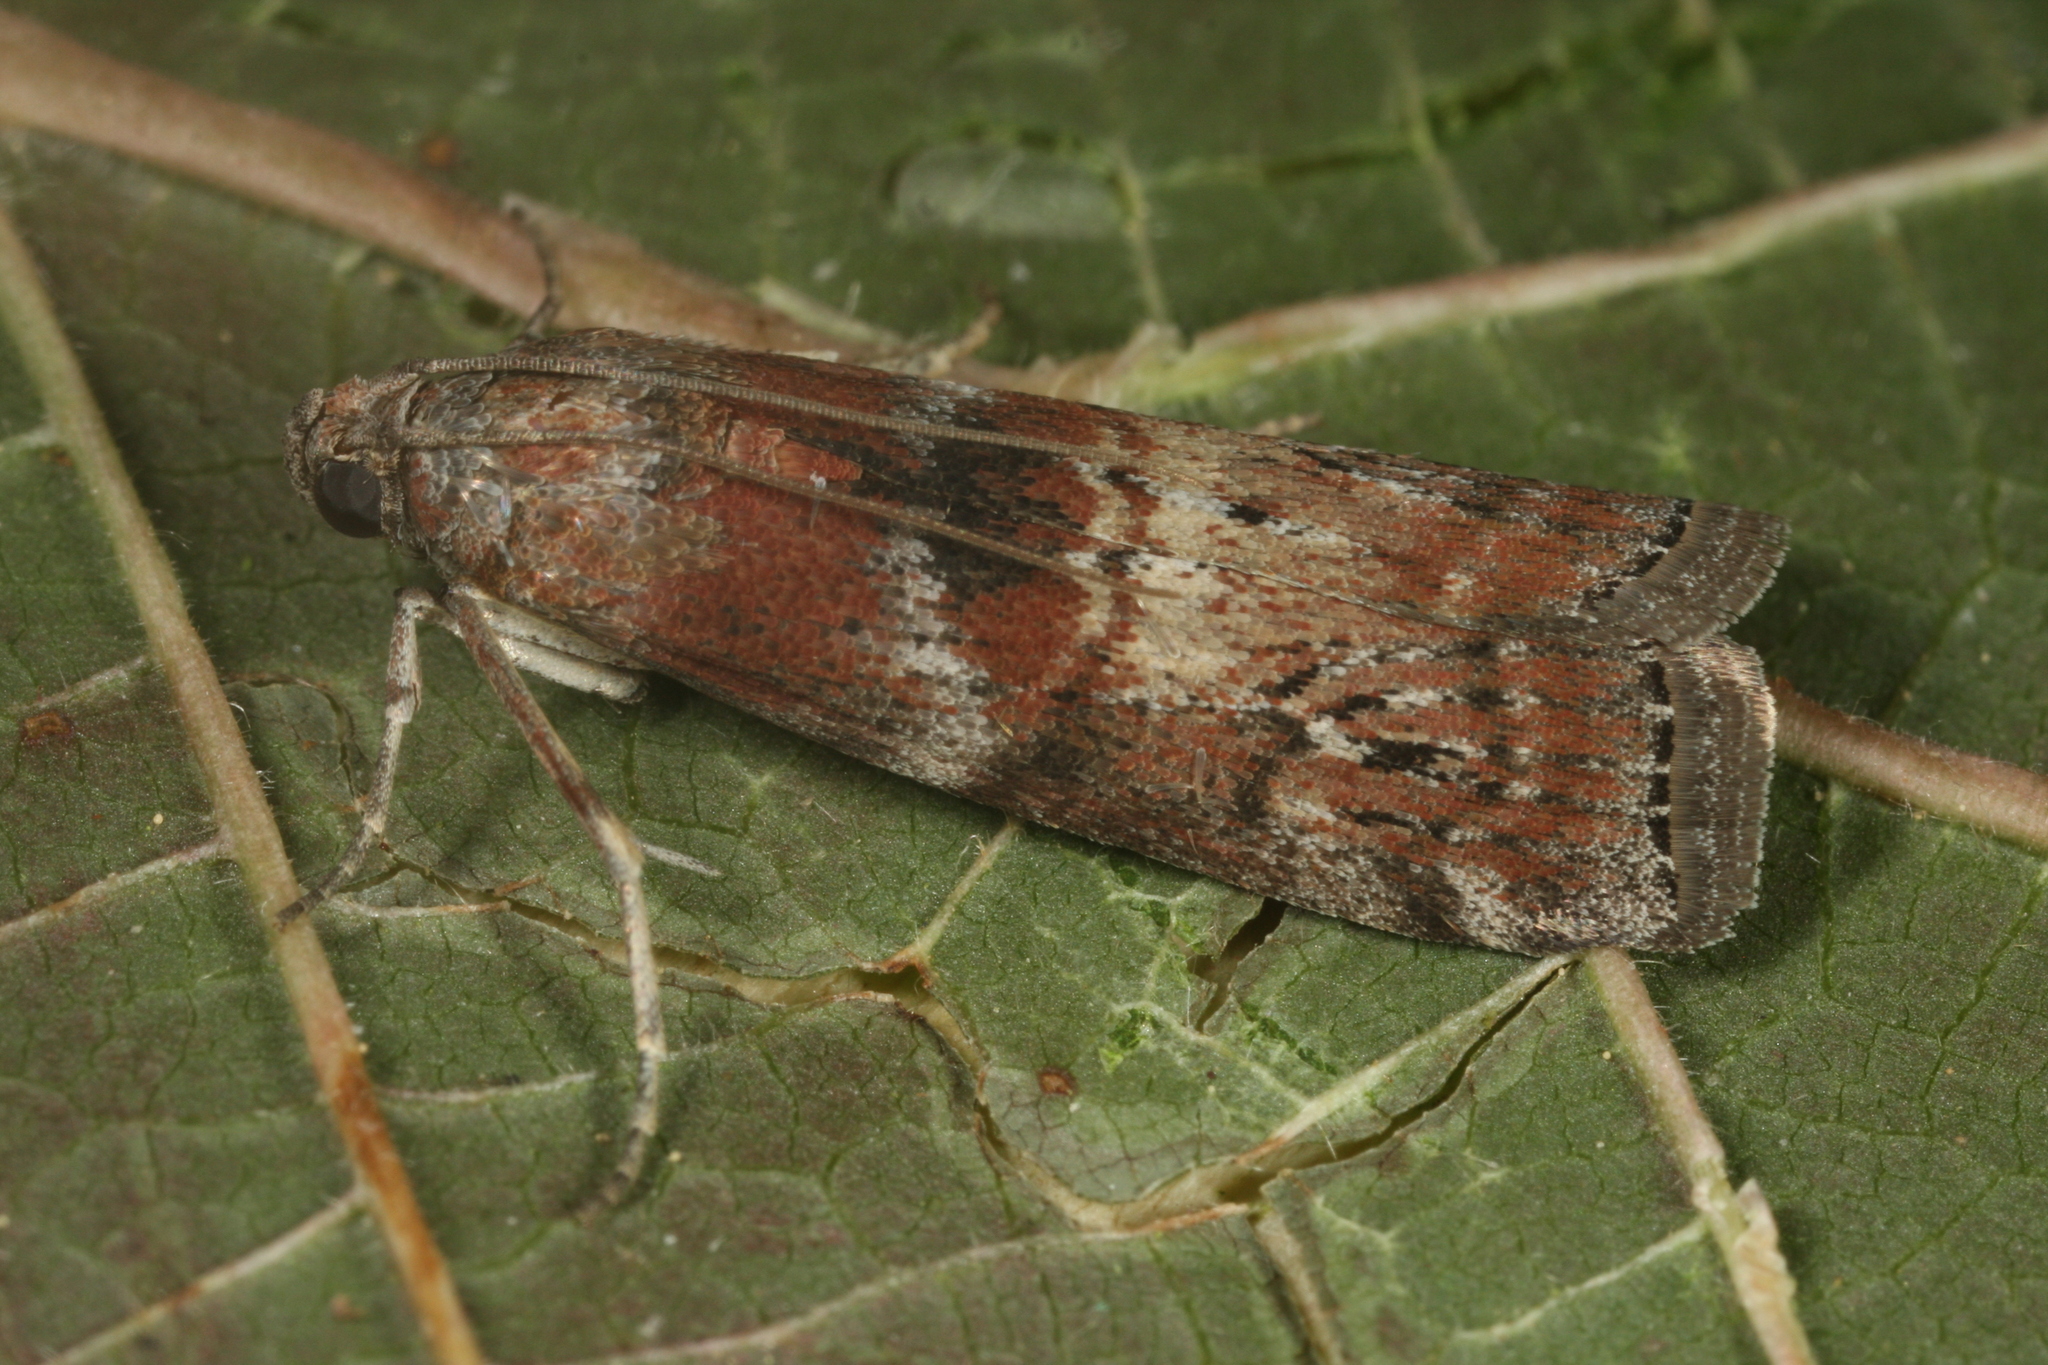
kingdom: Animalia
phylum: Arthropoda
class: Insecta
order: Lepidoptera
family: Pyralidae
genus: Phycita
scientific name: Phycita roborella
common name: Dotted oak knot-horn
